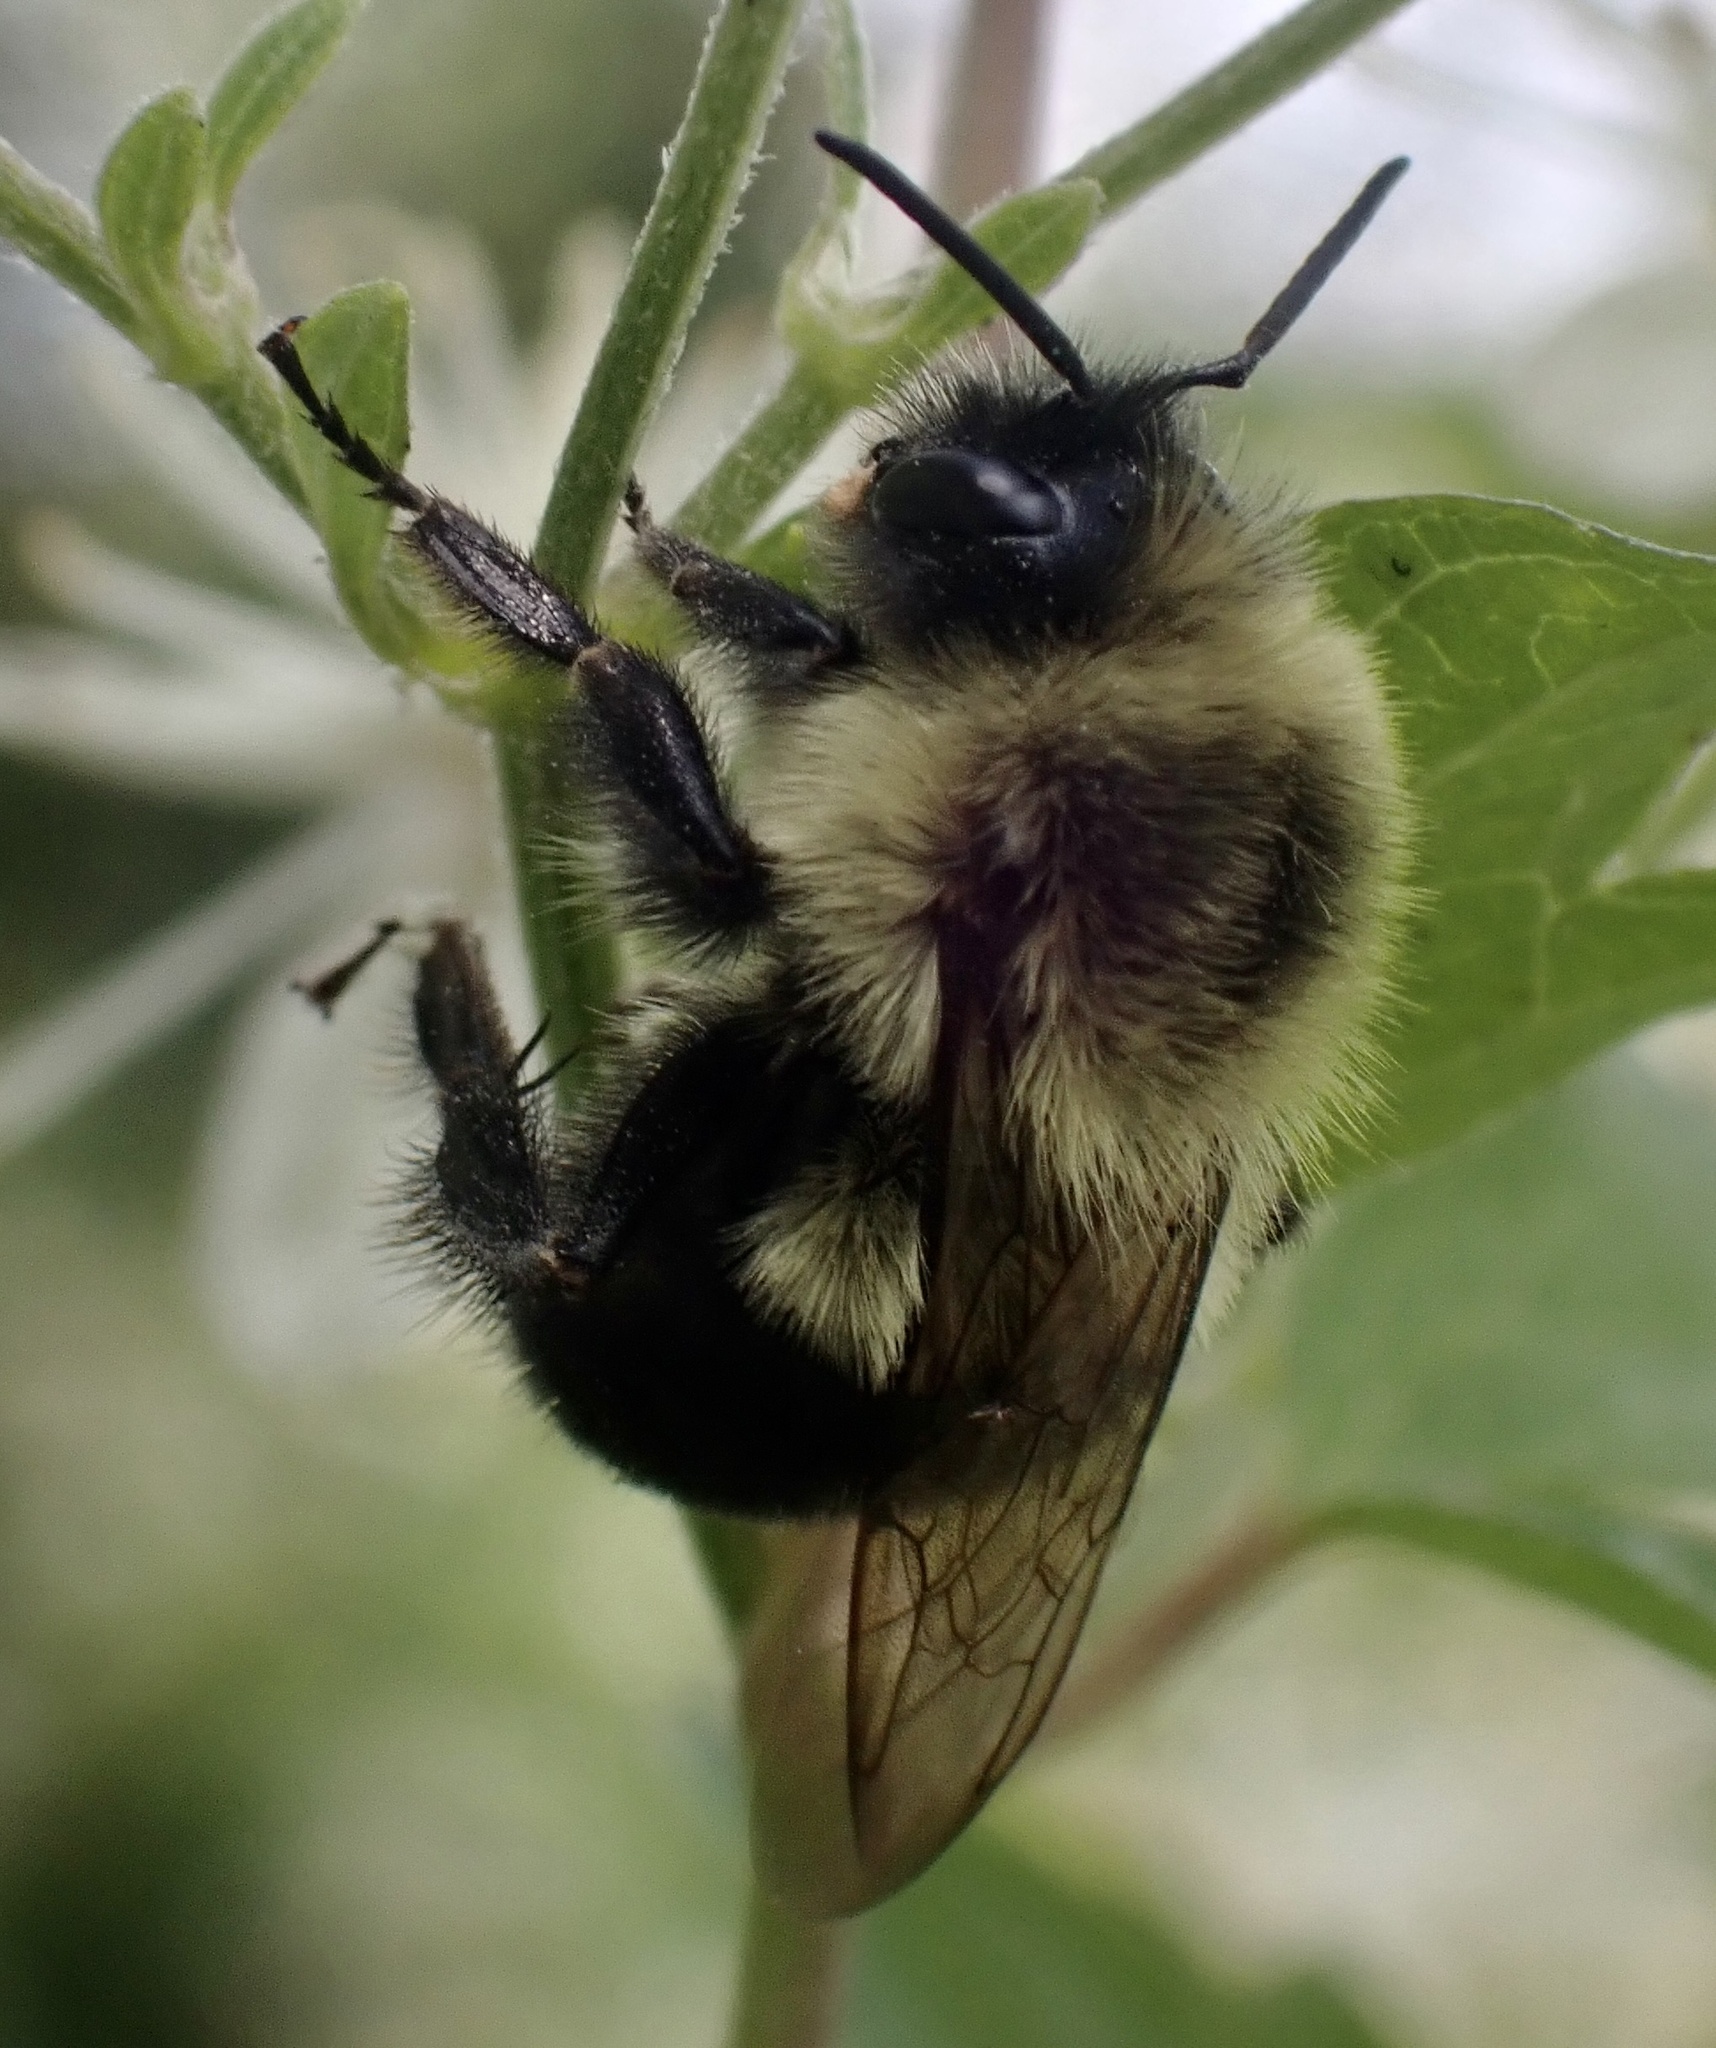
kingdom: Animalia
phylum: Arthropoda
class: Insecta
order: Hymenoptera
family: Apidae
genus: Bombus
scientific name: Bombus impatiens
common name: Common eastern bumble bee
